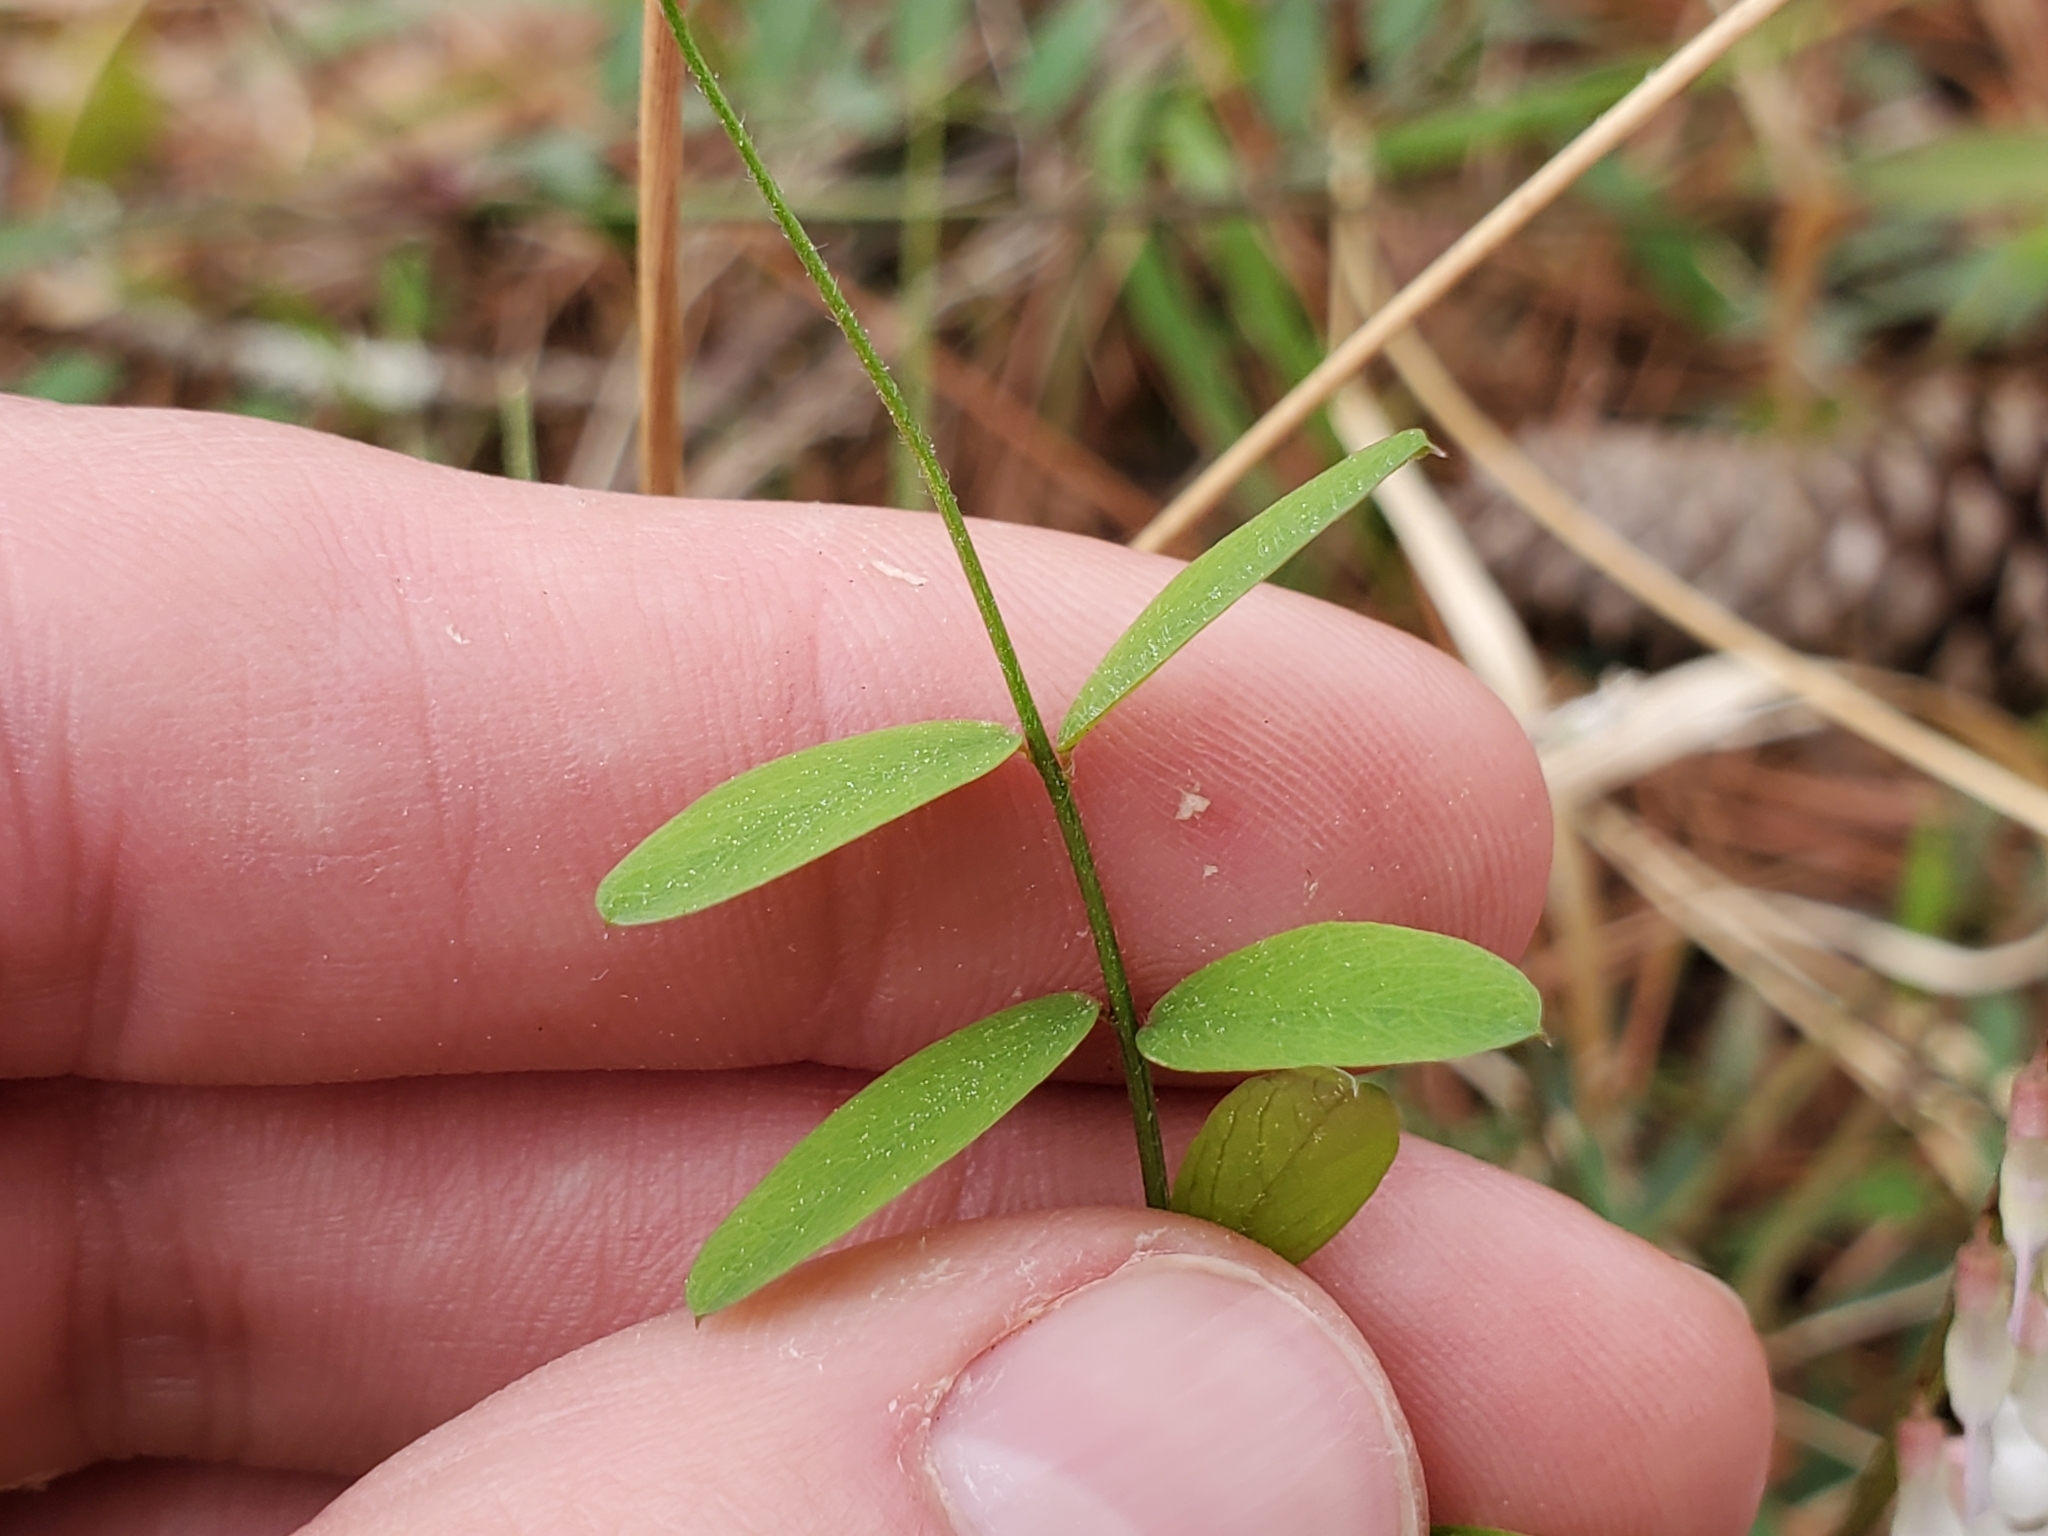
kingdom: Plantae
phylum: Tracheophyta
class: Magnoliopsida
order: Fabales
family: Fabaceae
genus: Vicia
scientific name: Vicia caroliniana
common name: Carolina vetch
